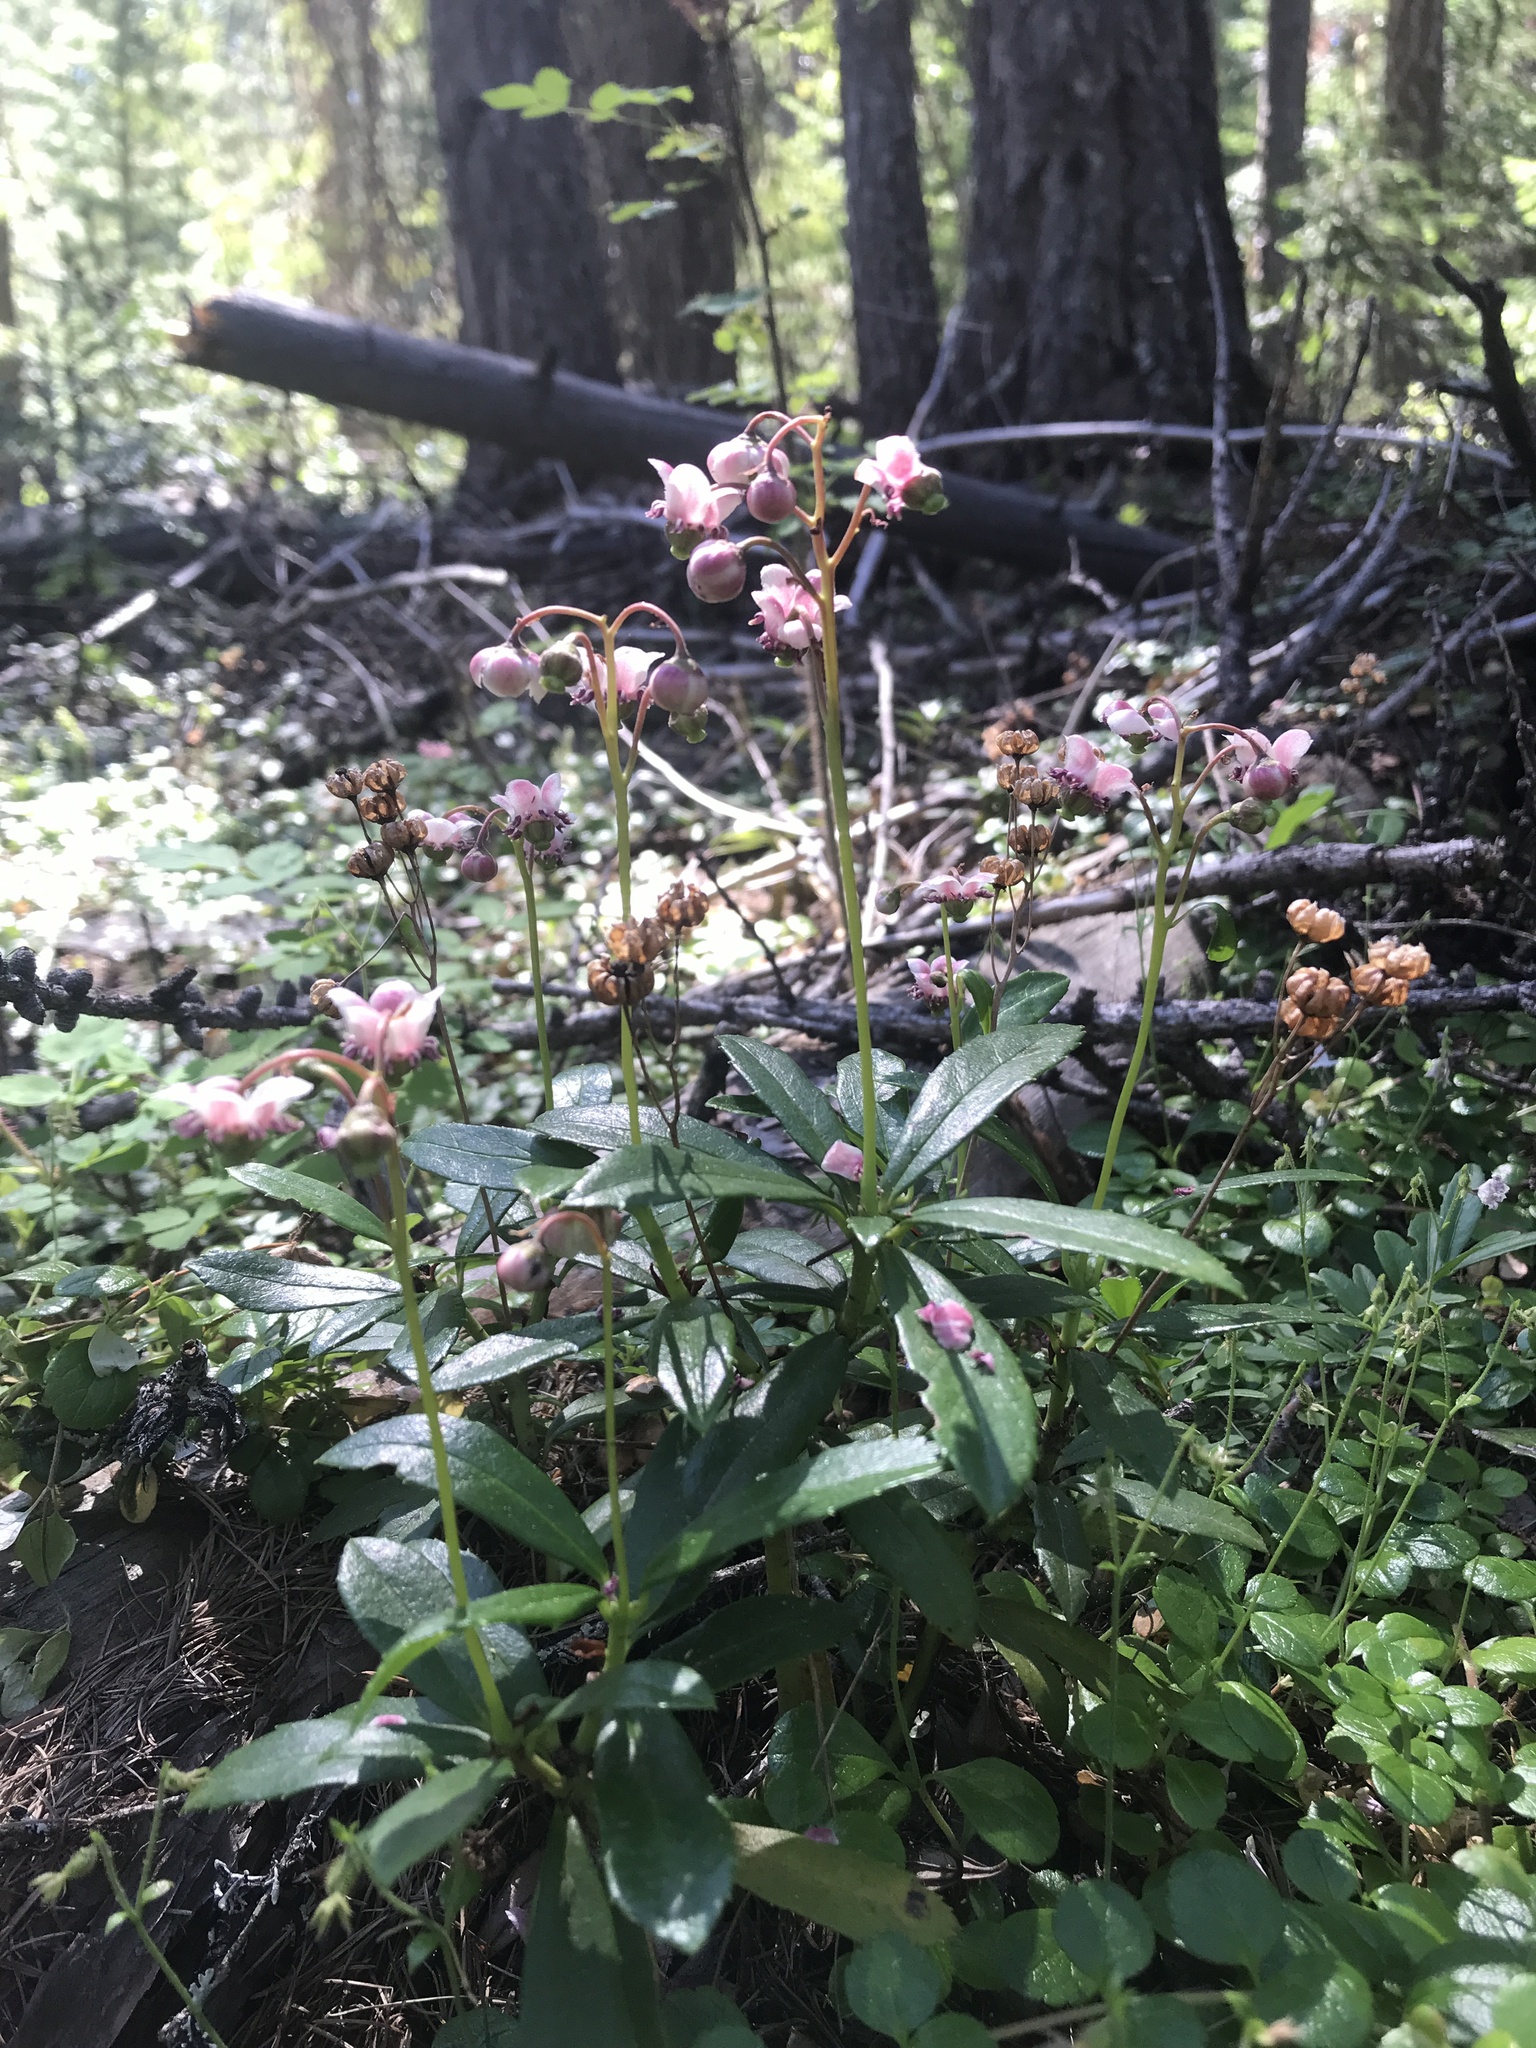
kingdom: Plantae
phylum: Tracheophyta
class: Magnoliopsida
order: Ericales
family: Ericaceae
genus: Chimaphila
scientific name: Chimaphila umbellata
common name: Pipsissewa
